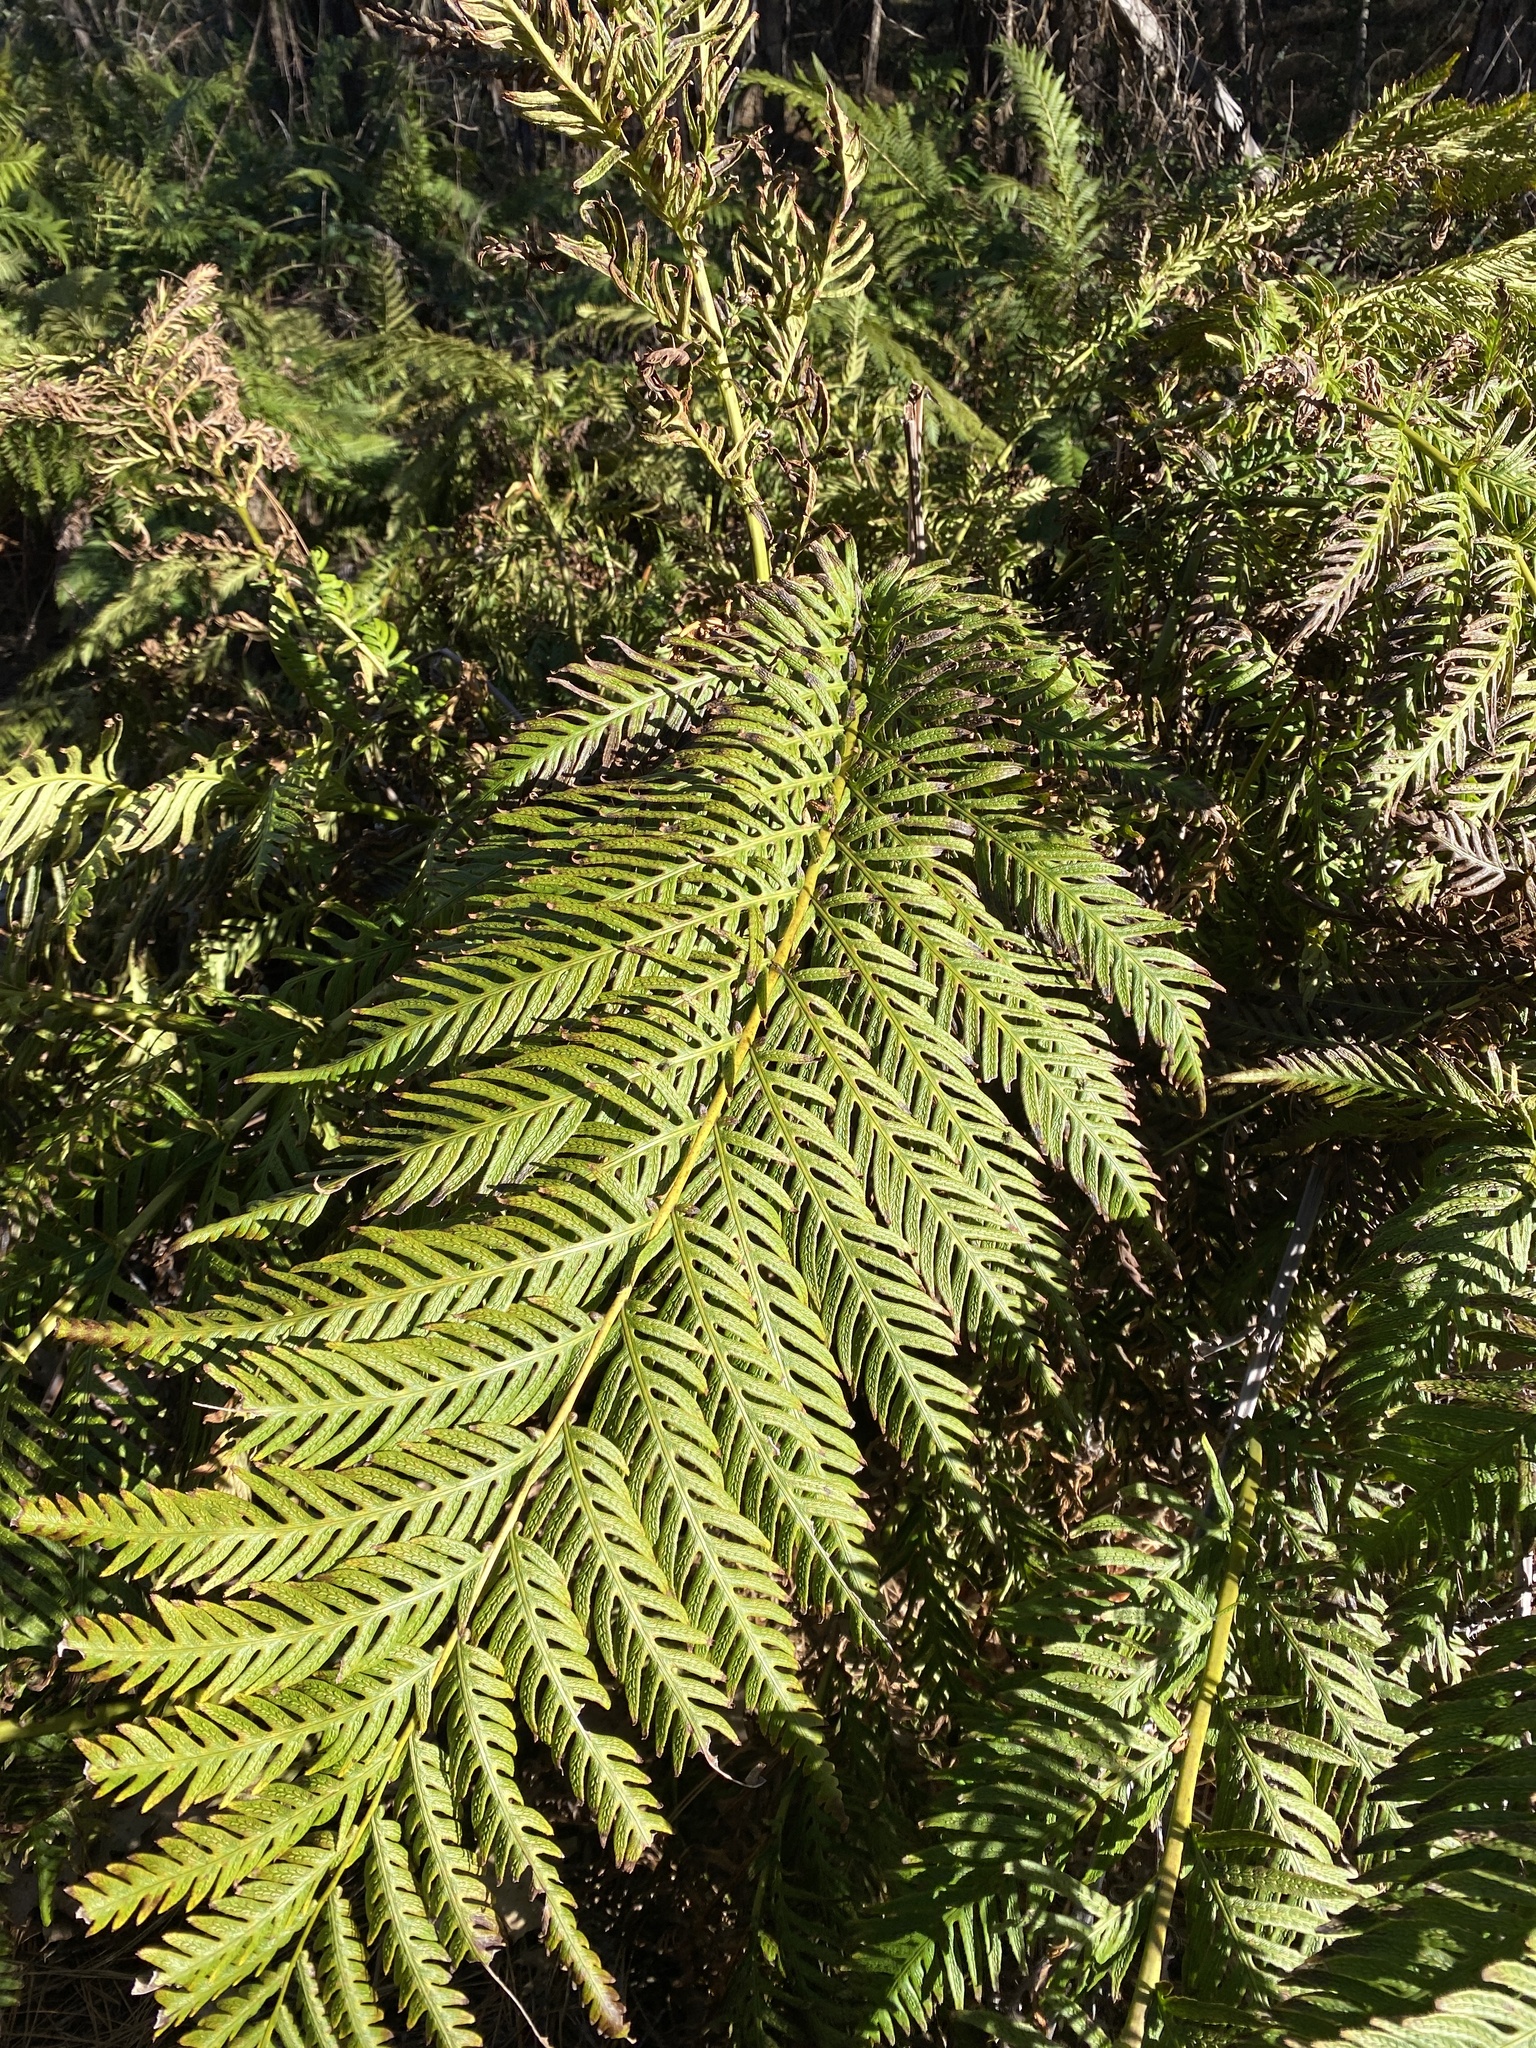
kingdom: Plantae
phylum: Tracheophyta
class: Polypodiopsida
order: Polypodiales
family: Blechnaceae
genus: Woodwardia
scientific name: Woodwardia fimbriata
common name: Giant chain fern
